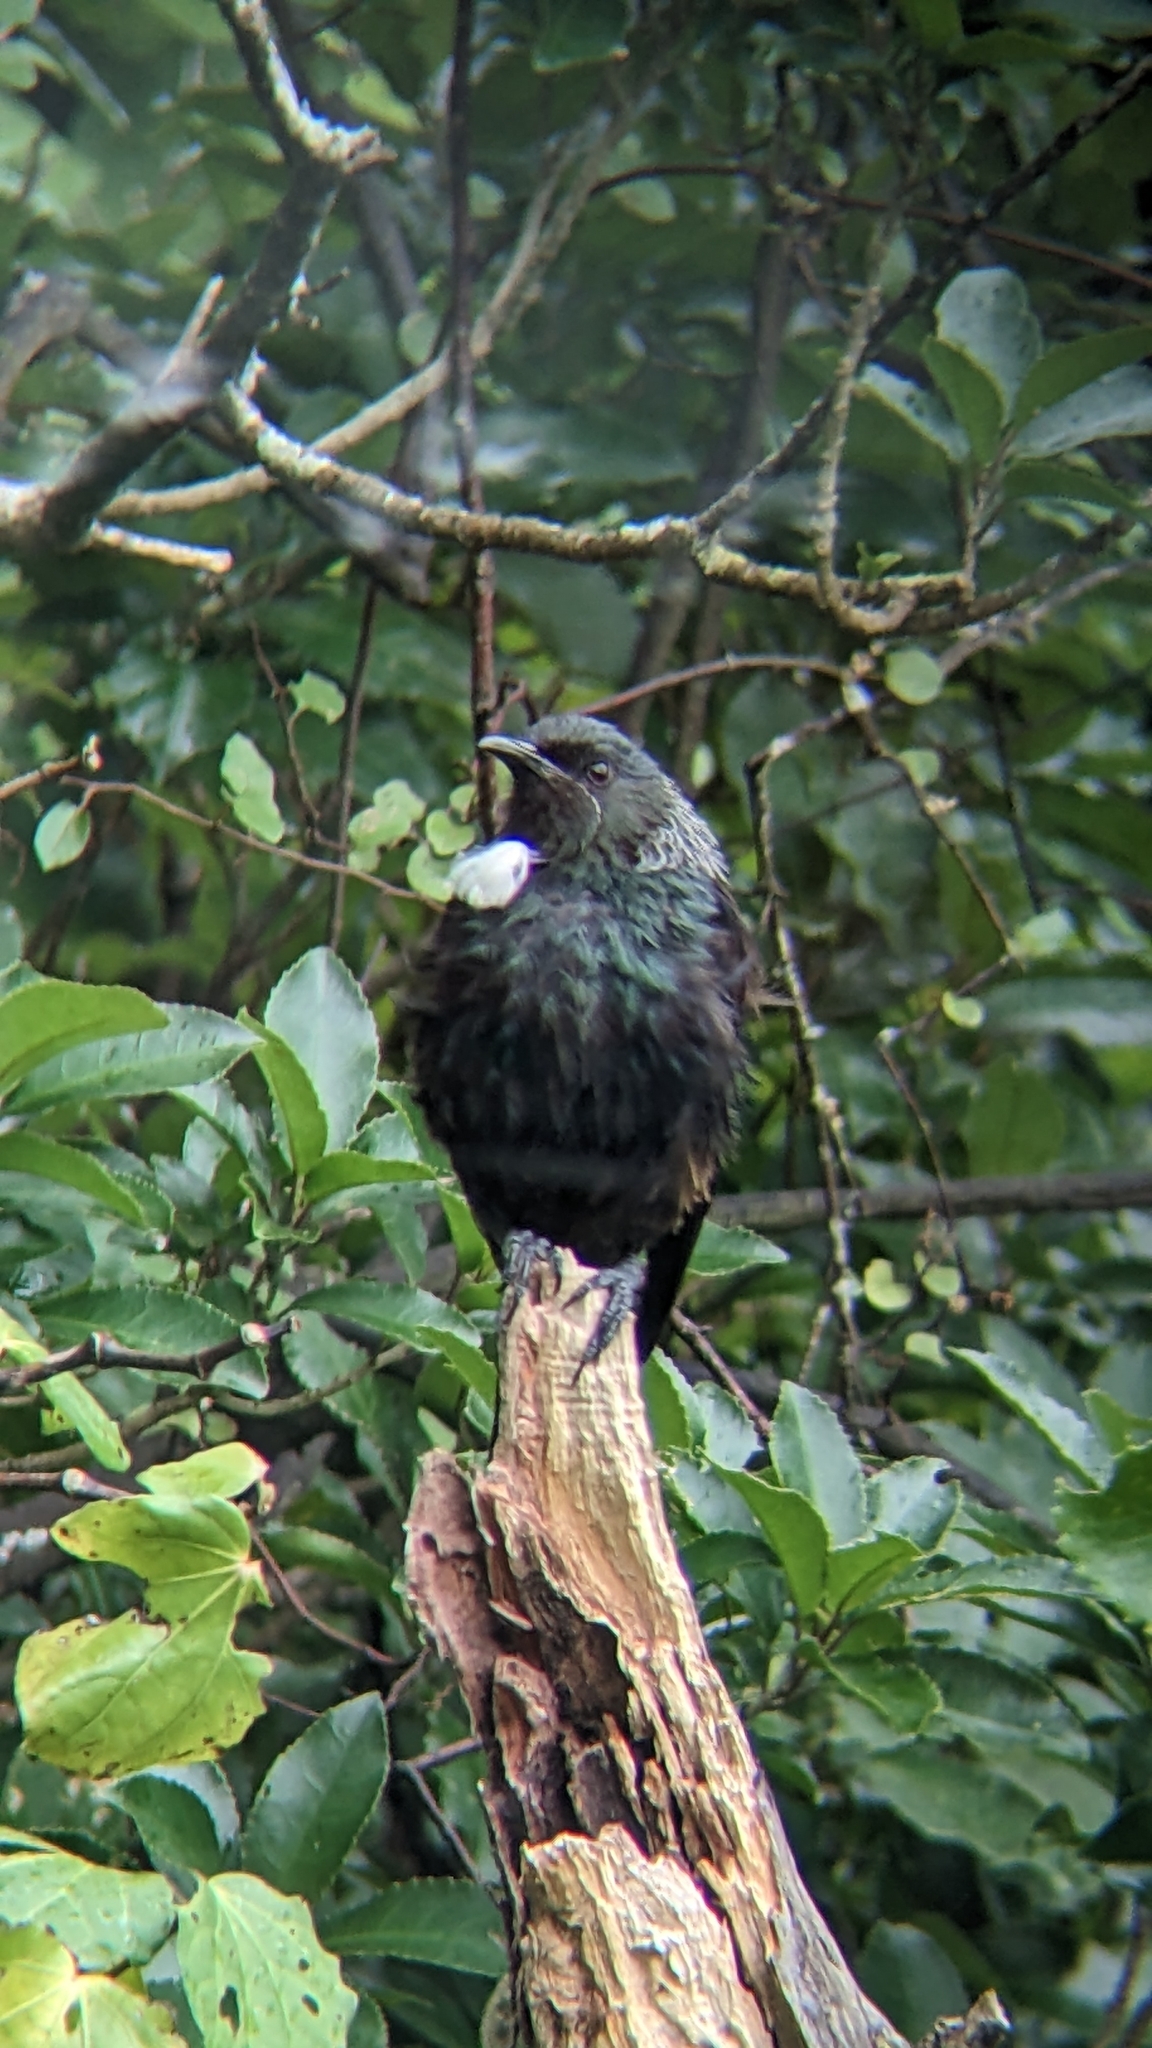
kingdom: Animalia
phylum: Chordata
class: Aves
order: Passeriformes
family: Meliphagidae
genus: Prosthemadera
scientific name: Prosthemadera novaeseelandiae
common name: Tui
